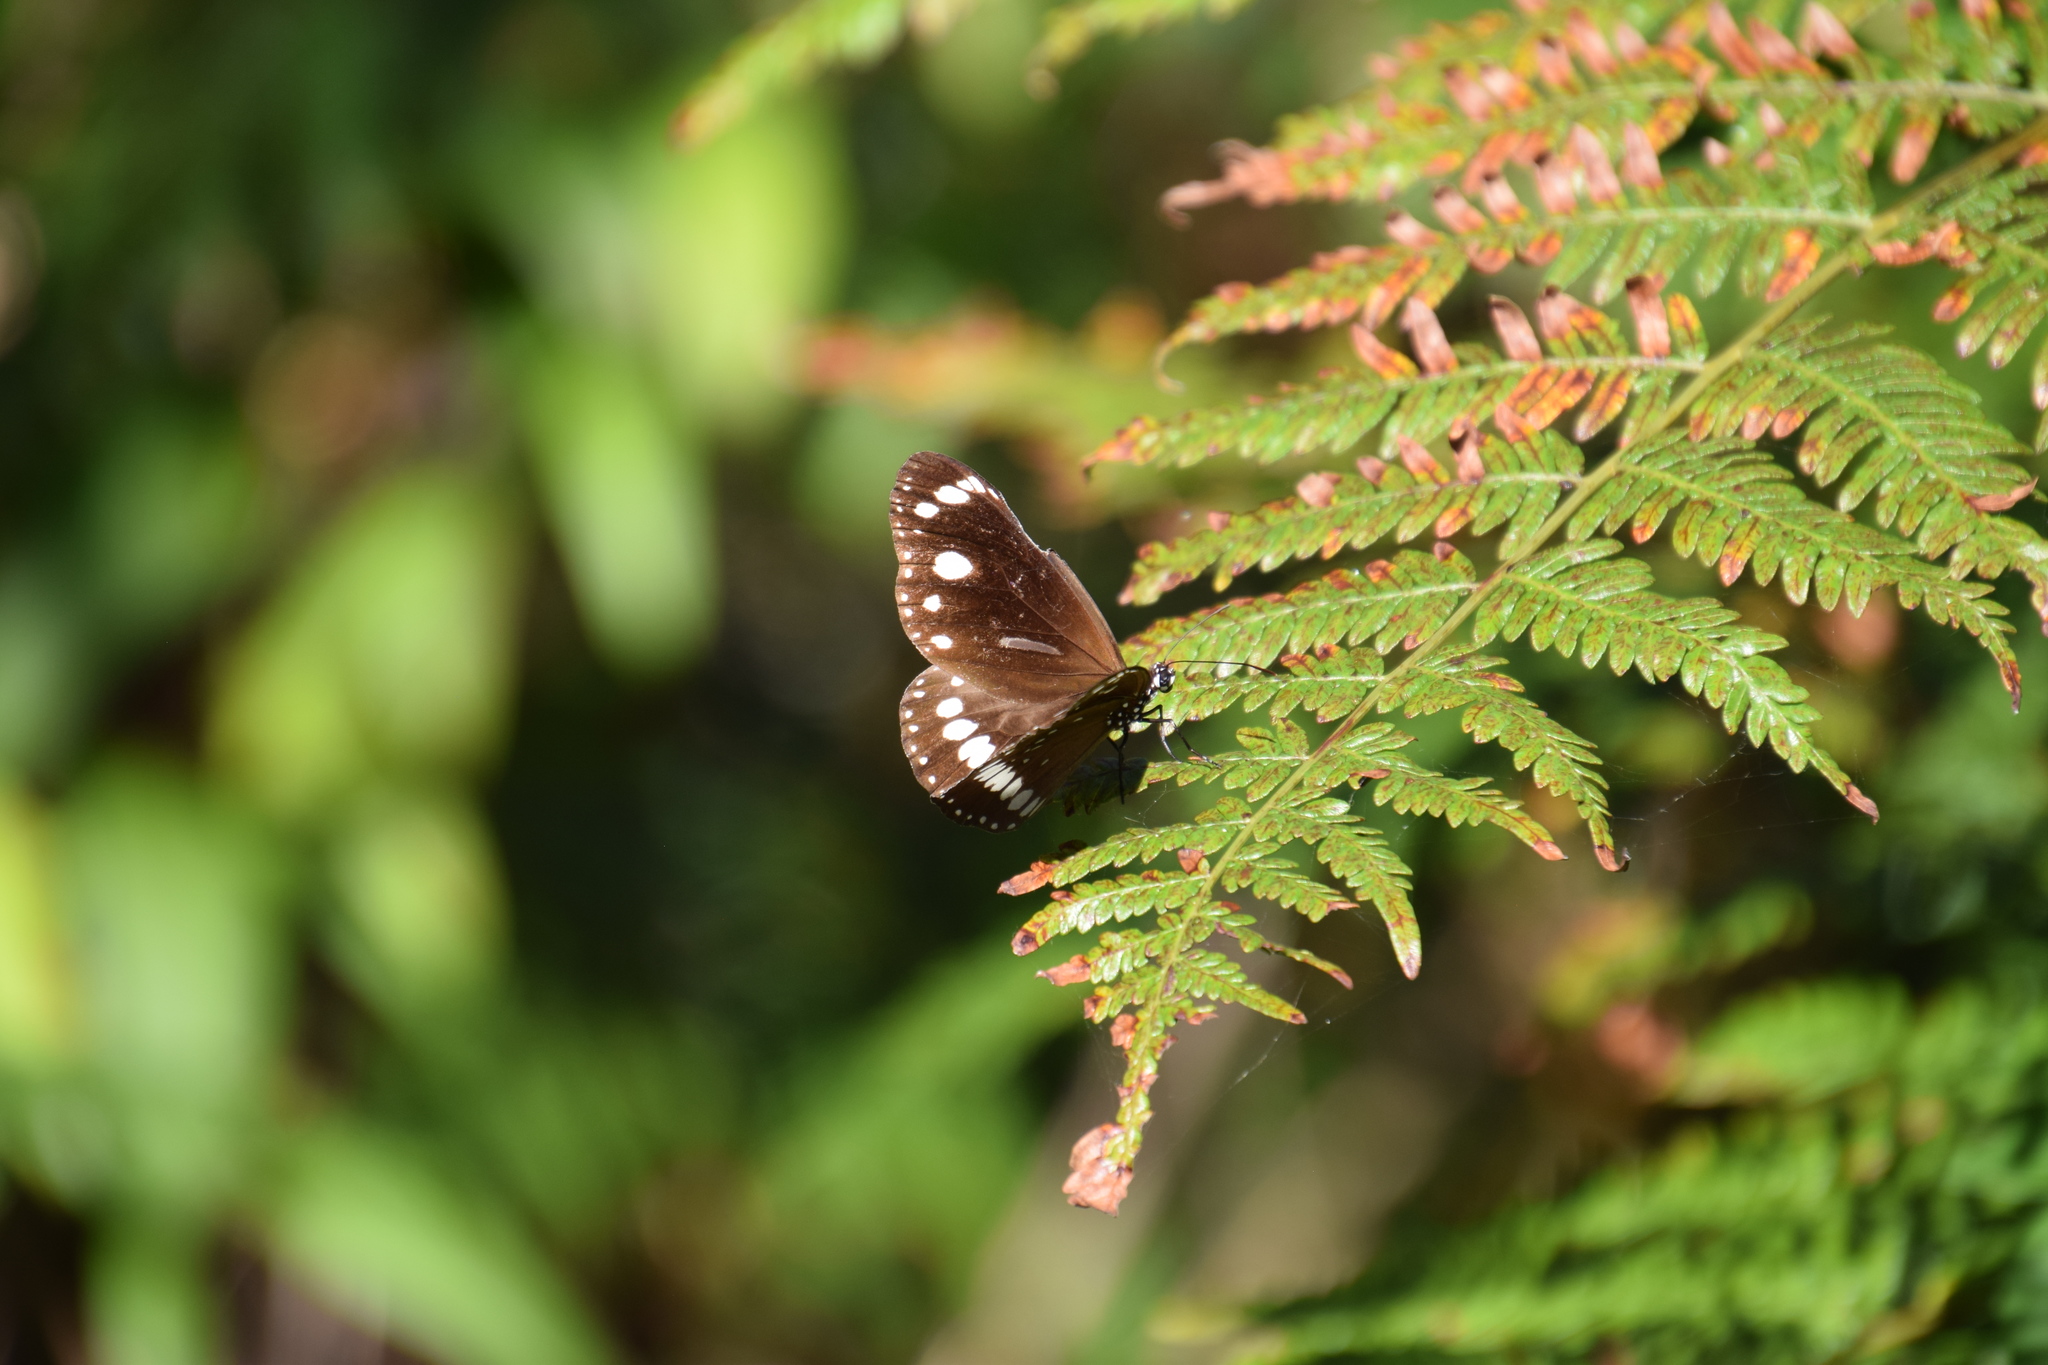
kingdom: Animalia
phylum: Arthropoda
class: Insecta
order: Lepidoptera
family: Nymphalidae
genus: Euploea
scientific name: Euploea core
